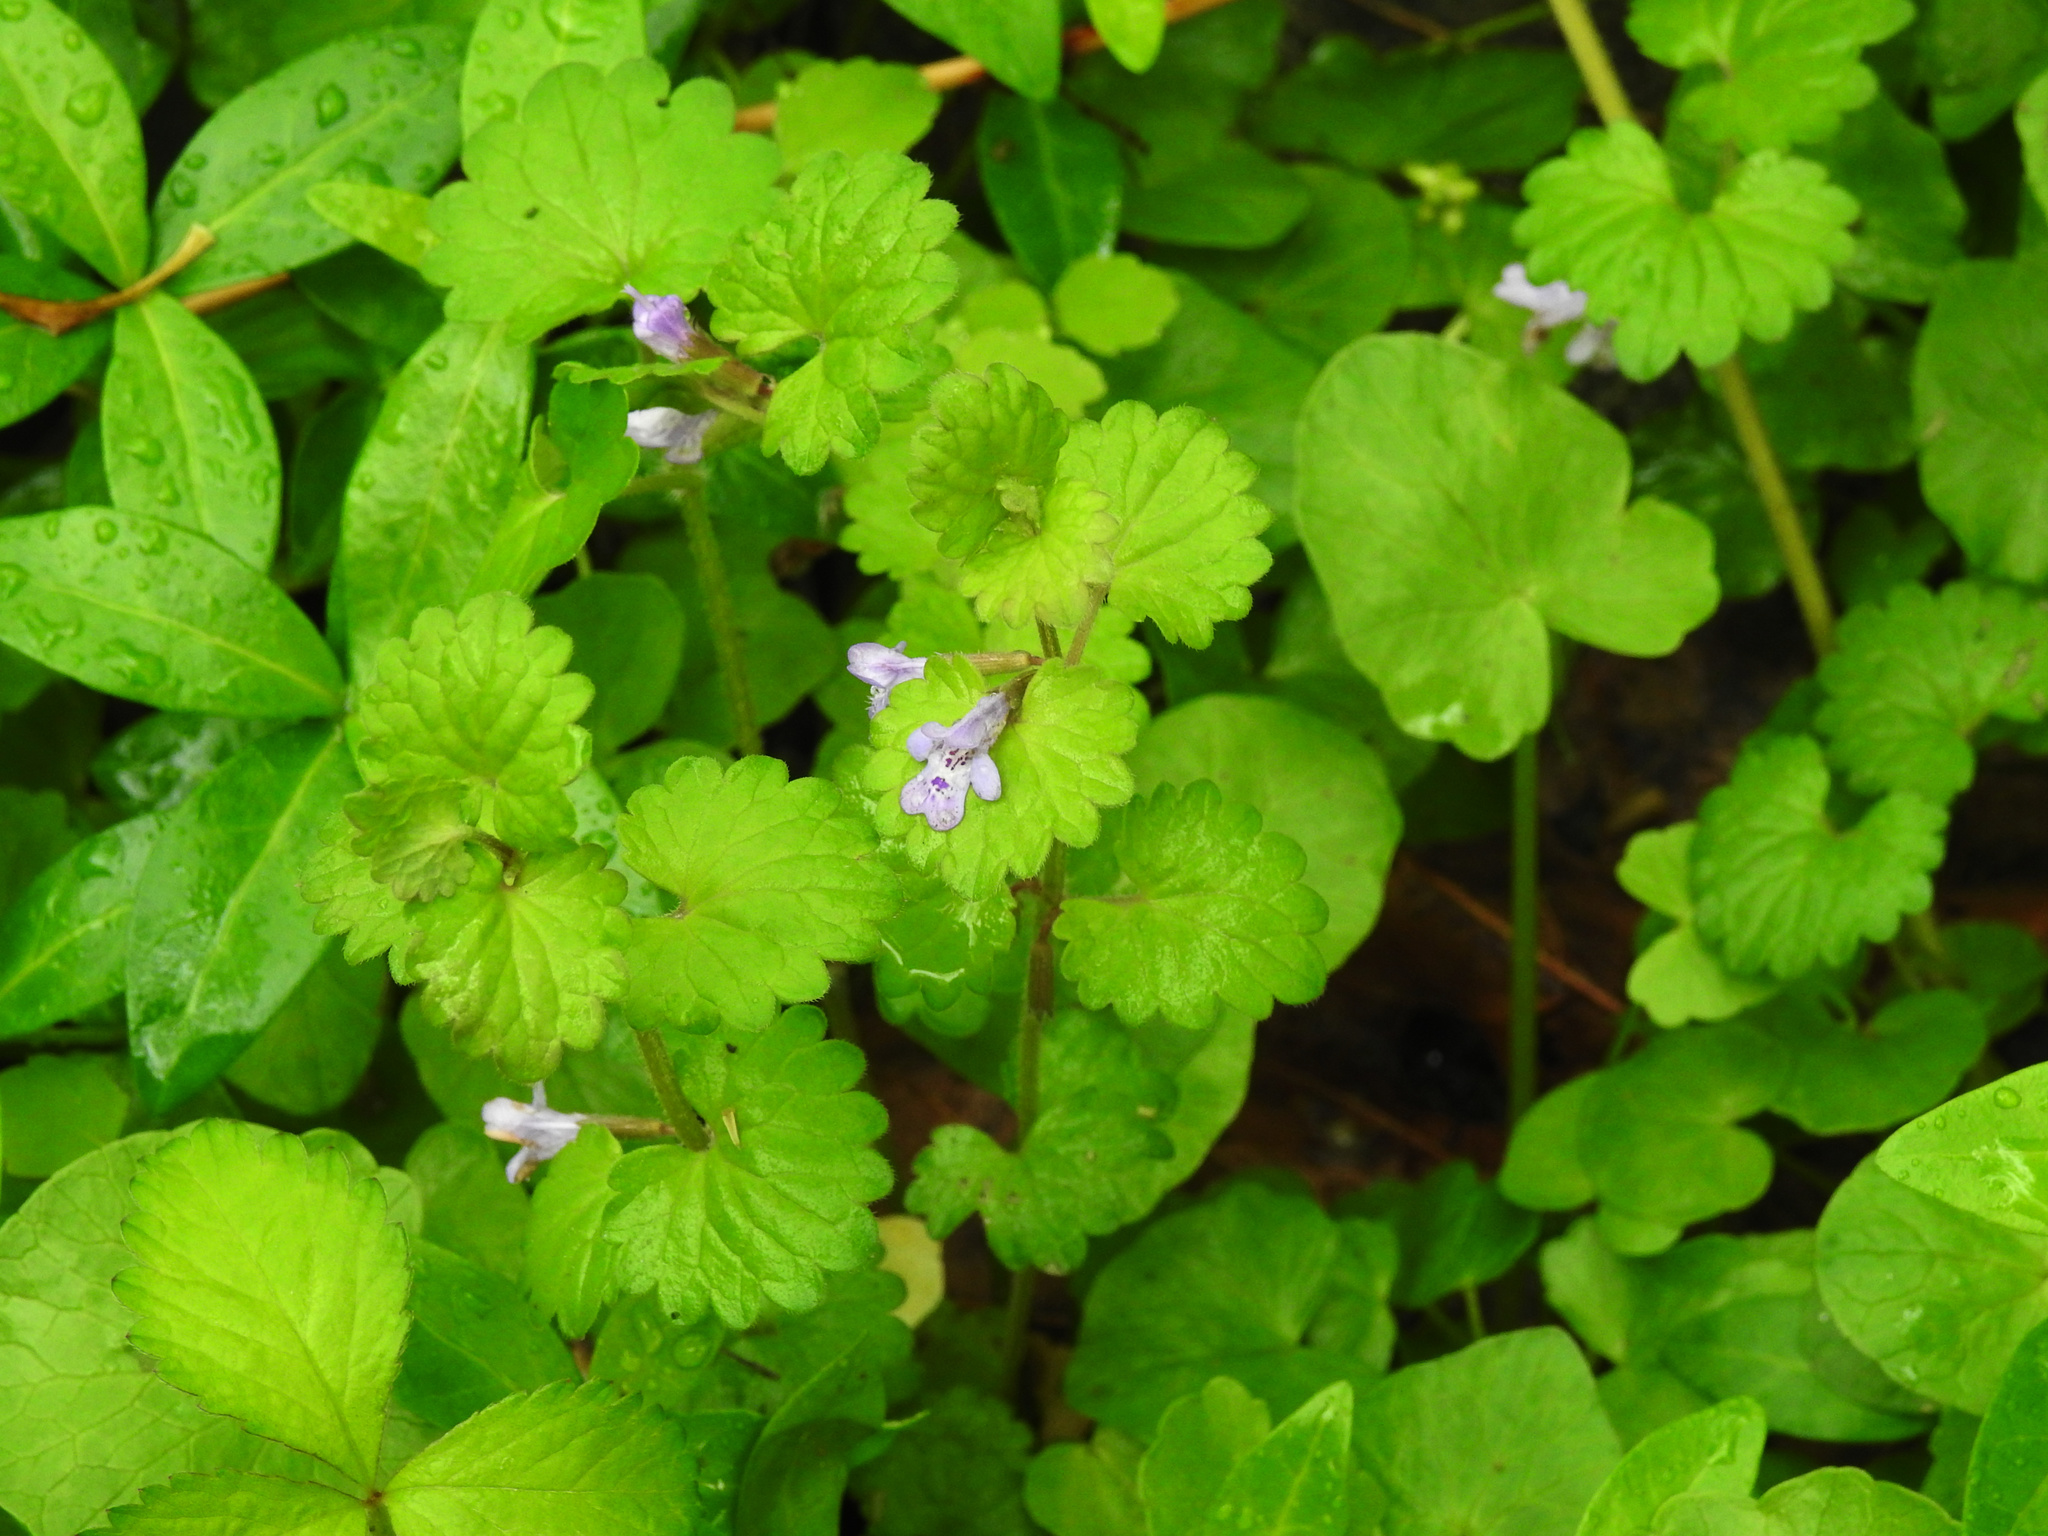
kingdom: Plantae
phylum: Tracheophyta
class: Magnoliopsida
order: Lamiales
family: Lamiaceae
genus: Glechoma
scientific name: Glechoma hederacea
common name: Ground ivy
